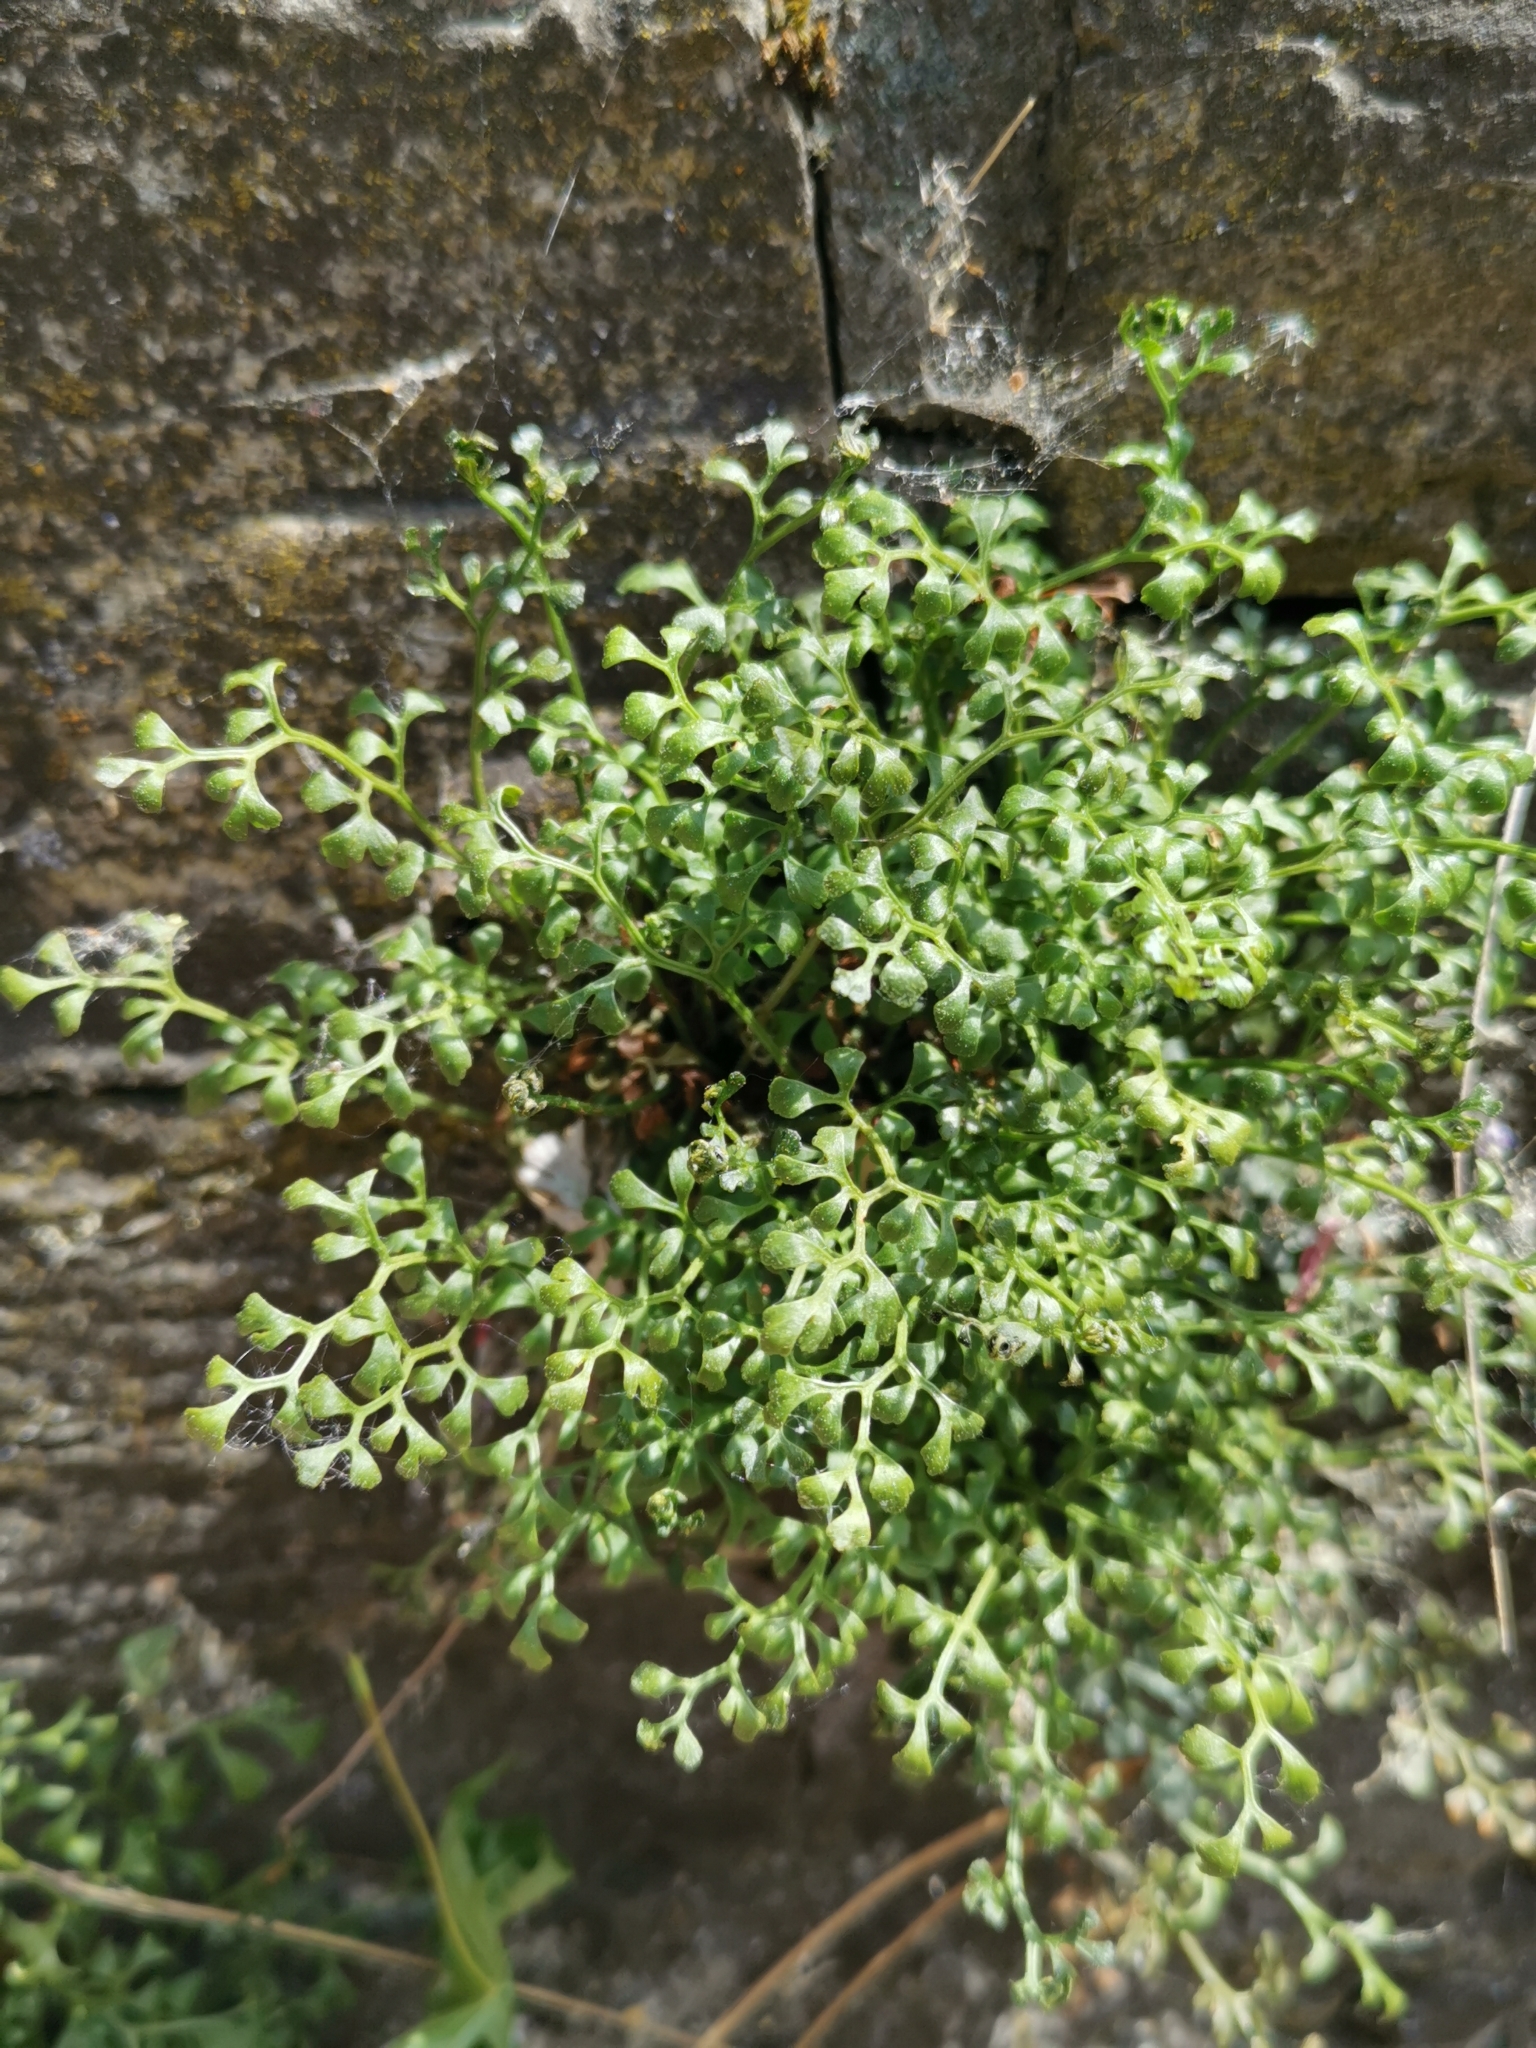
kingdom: Plantae
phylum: Tracheophyta
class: Polypodiopsida
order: Polypodiales
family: Aspleniaceae
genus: Asplenium
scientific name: Asplenium ruta-muraria
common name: Wall-rue
